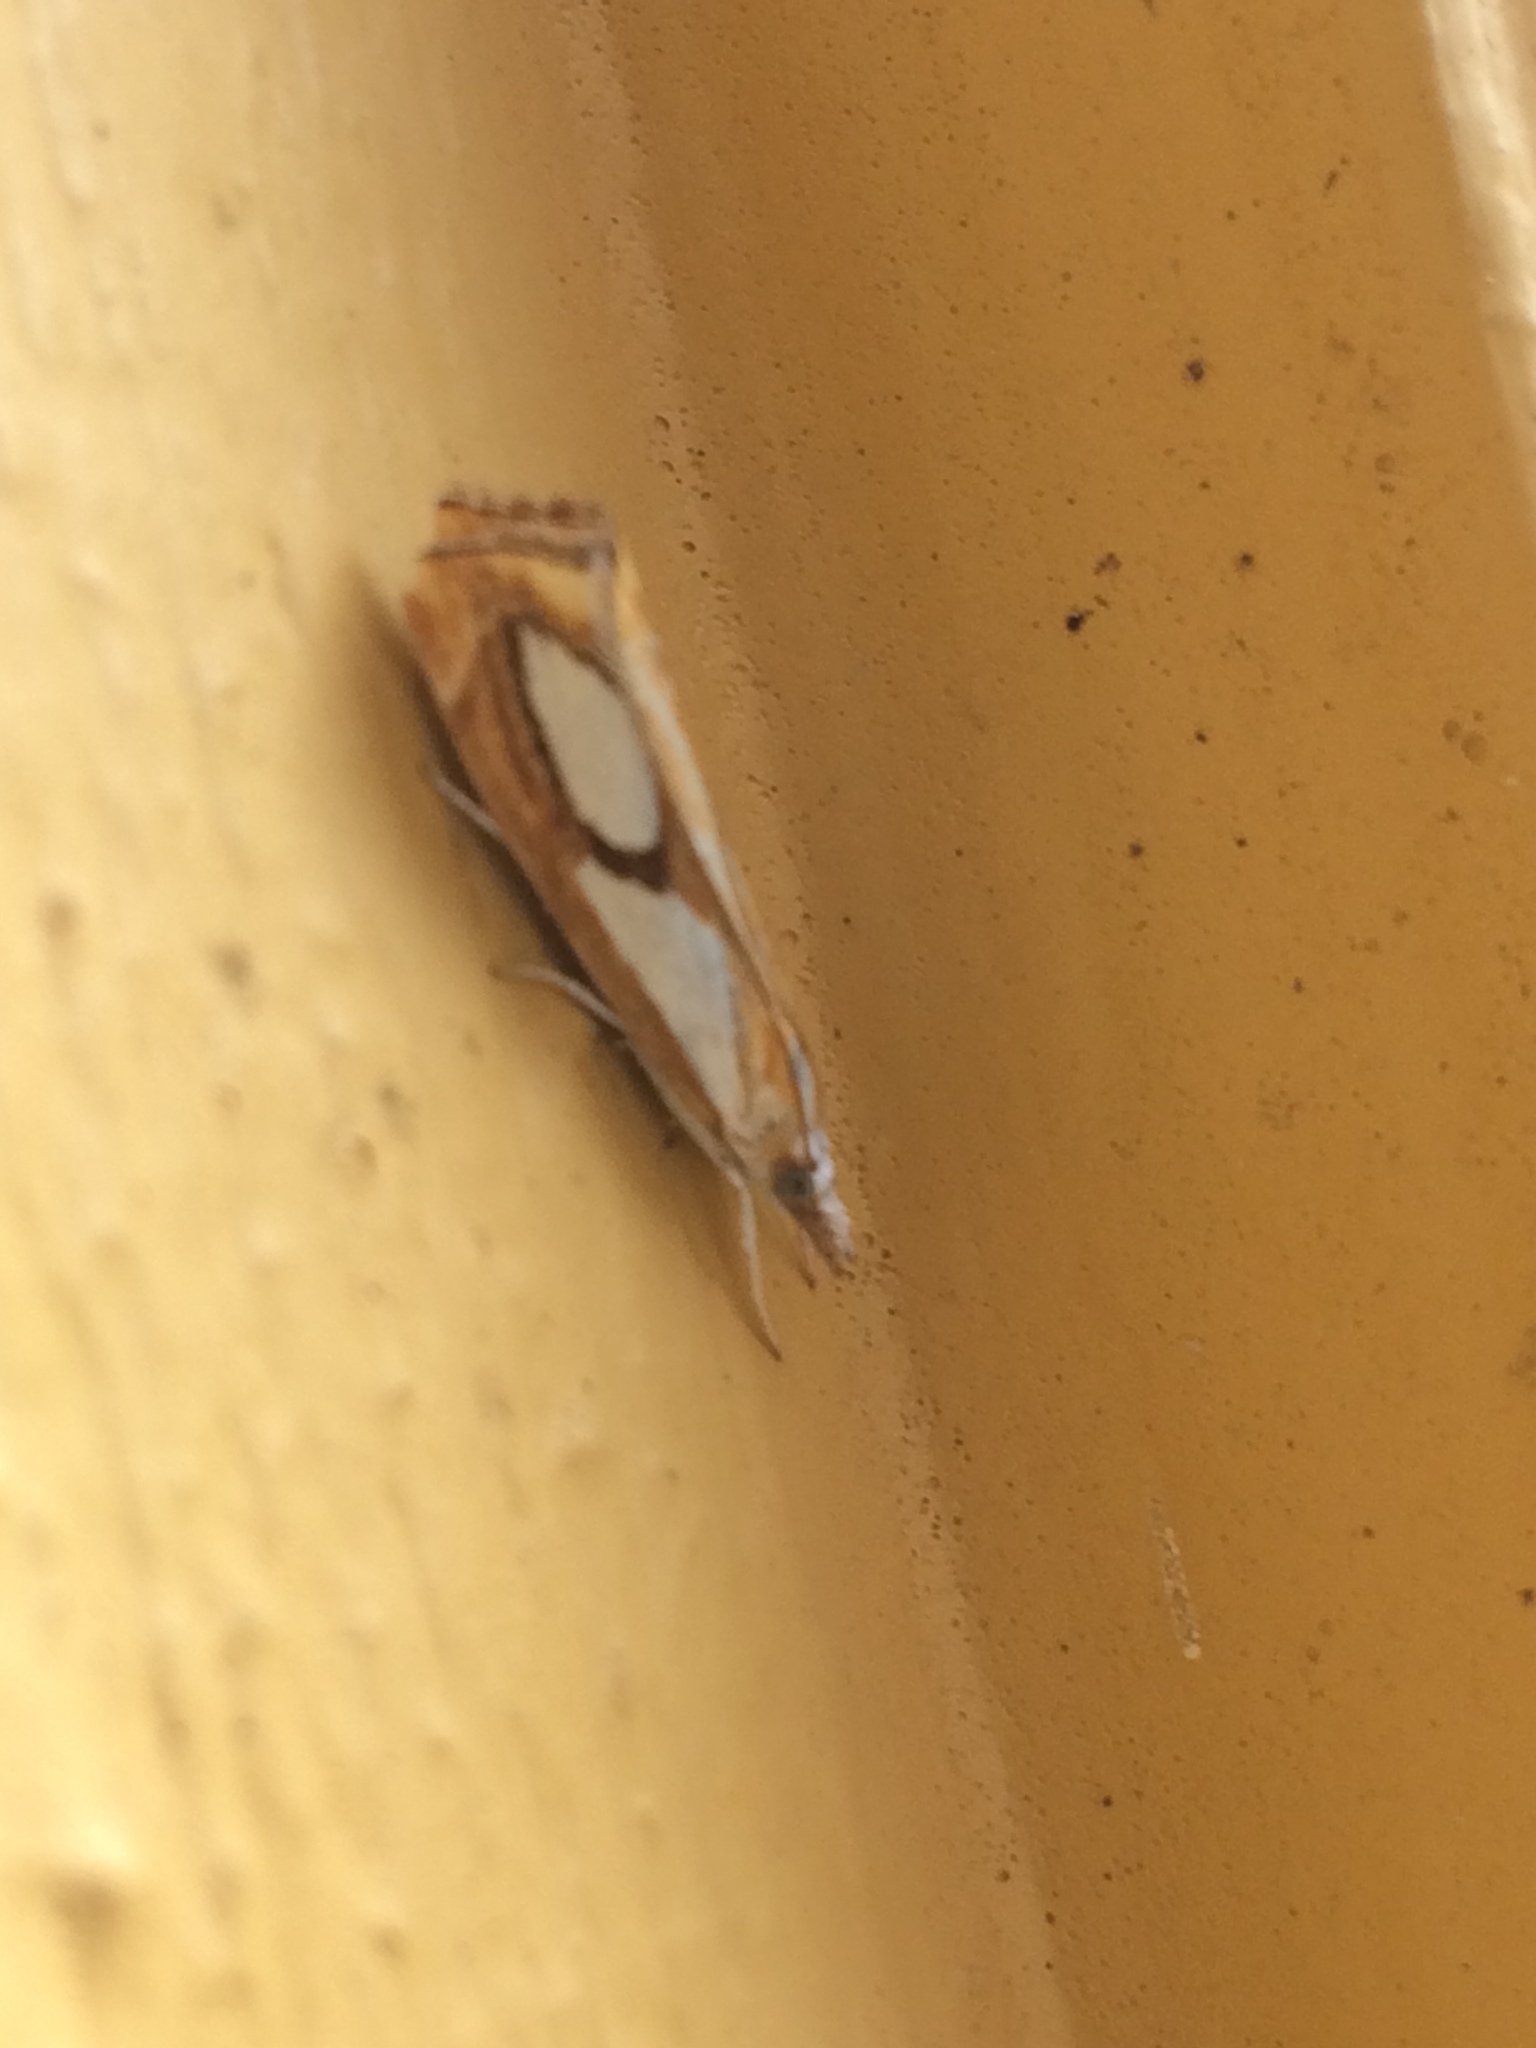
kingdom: Animalia
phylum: Arthropoda
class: Insecta
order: Lepidoptera
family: Crambidae
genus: Catoptria
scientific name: Catoptria pinella
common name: Pearl grass-veneer
